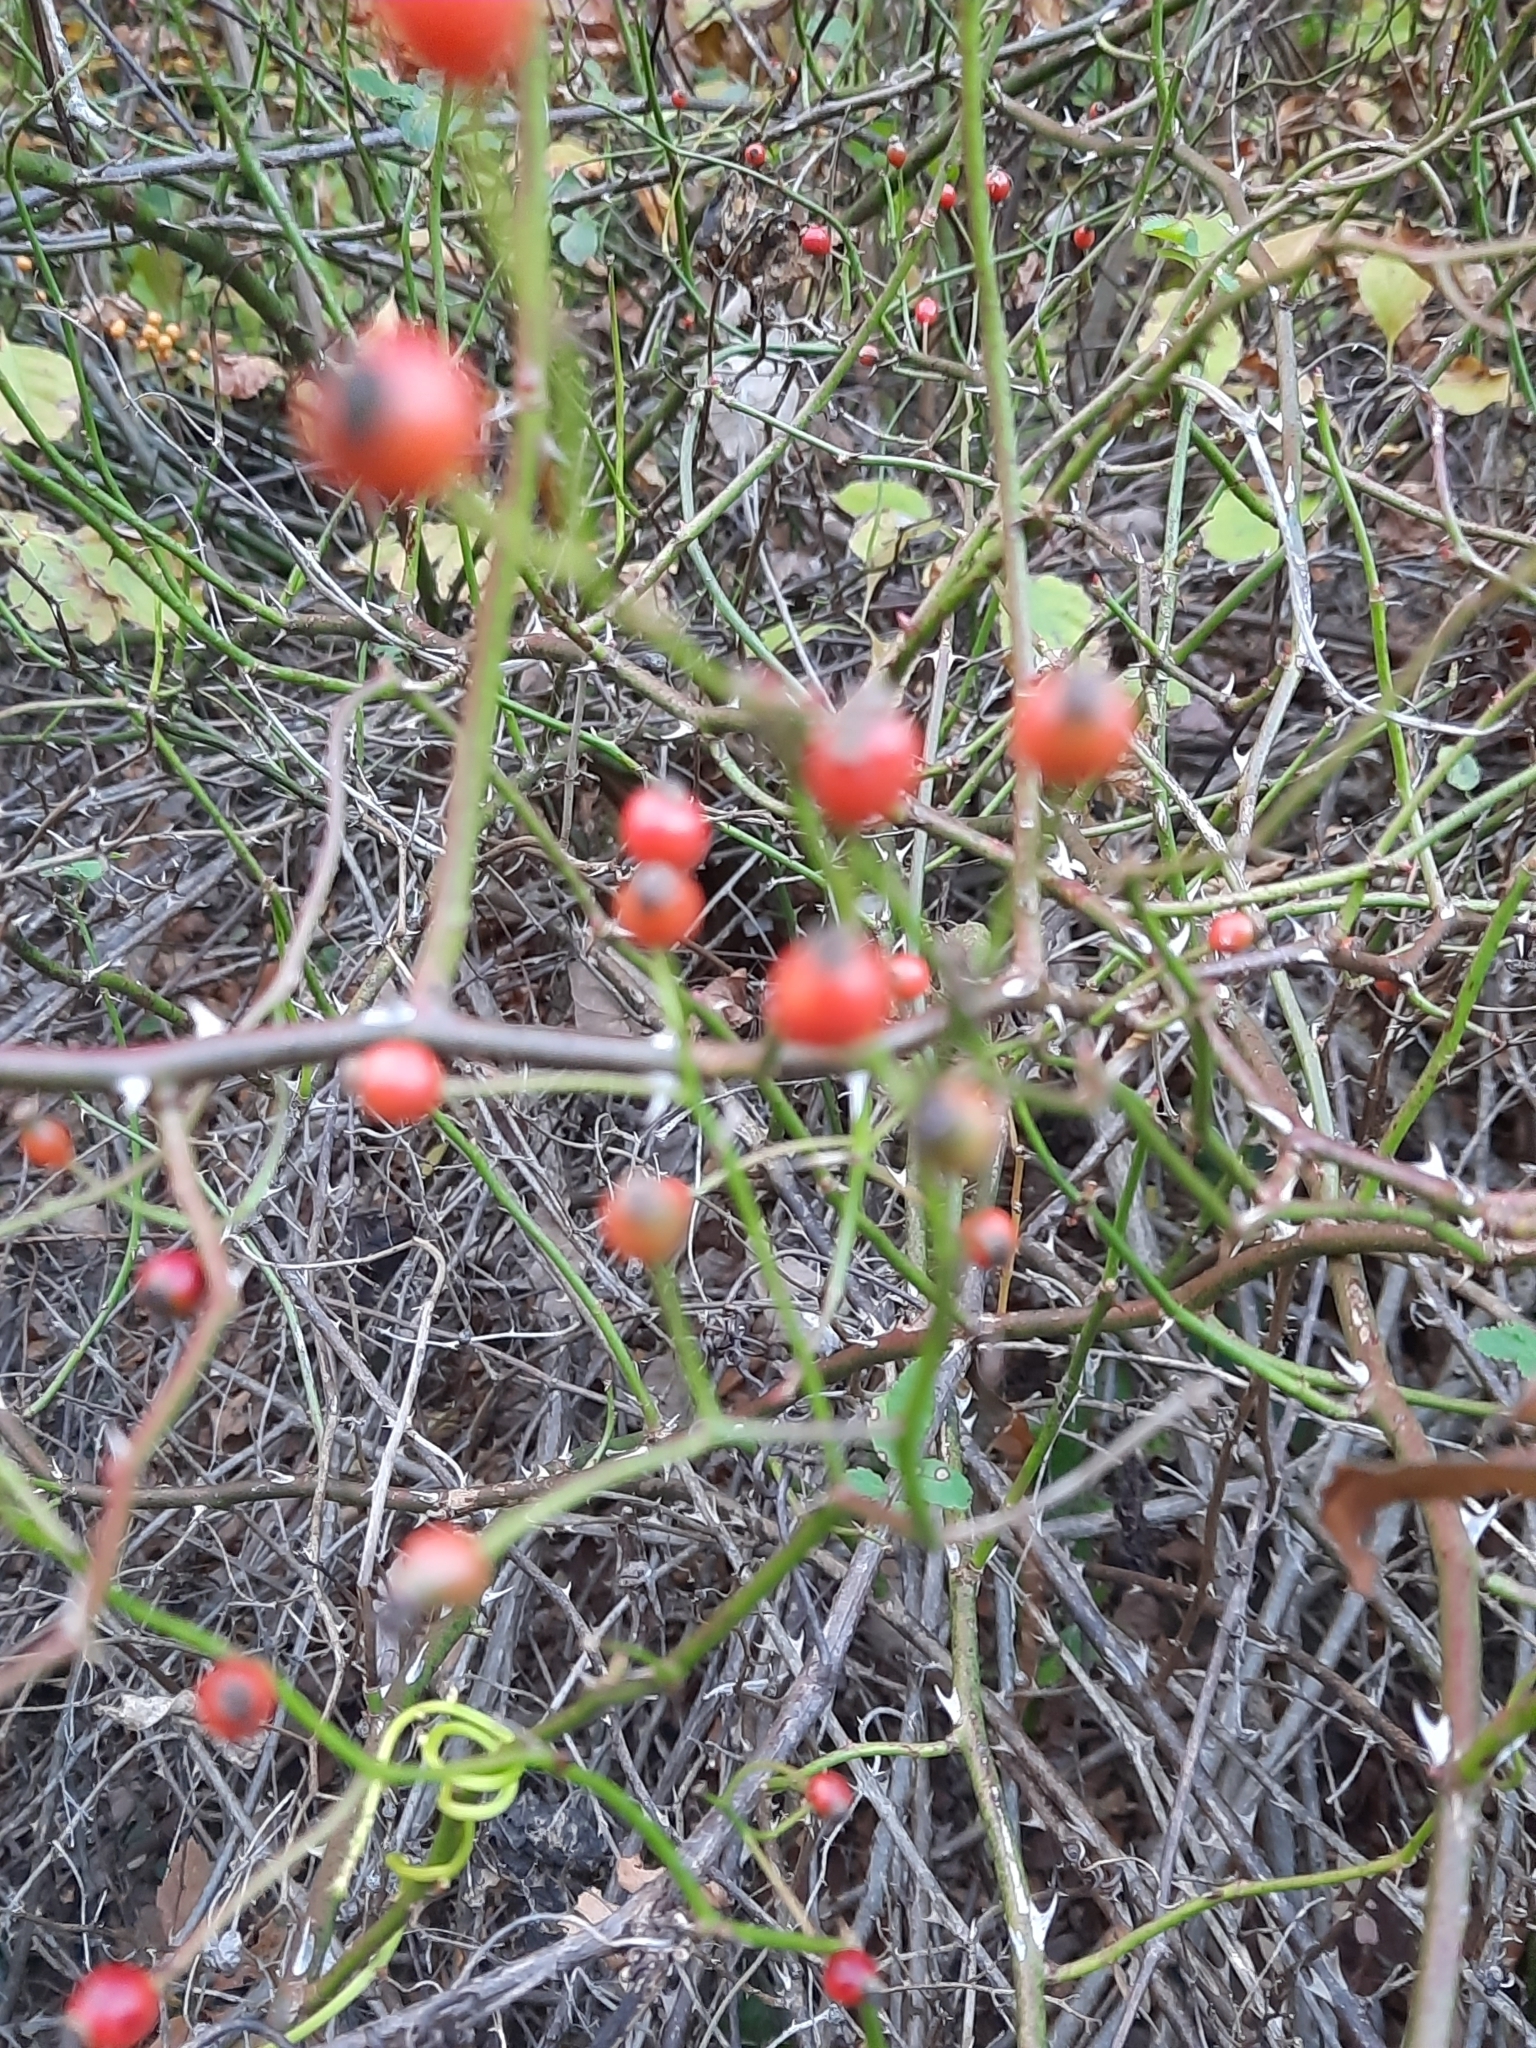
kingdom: Plantae
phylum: Tracheophyta
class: Magnoliopsida
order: Rosales
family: Rosaceae
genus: Rosa
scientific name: Rosa multiflora
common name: Multiflora rose
